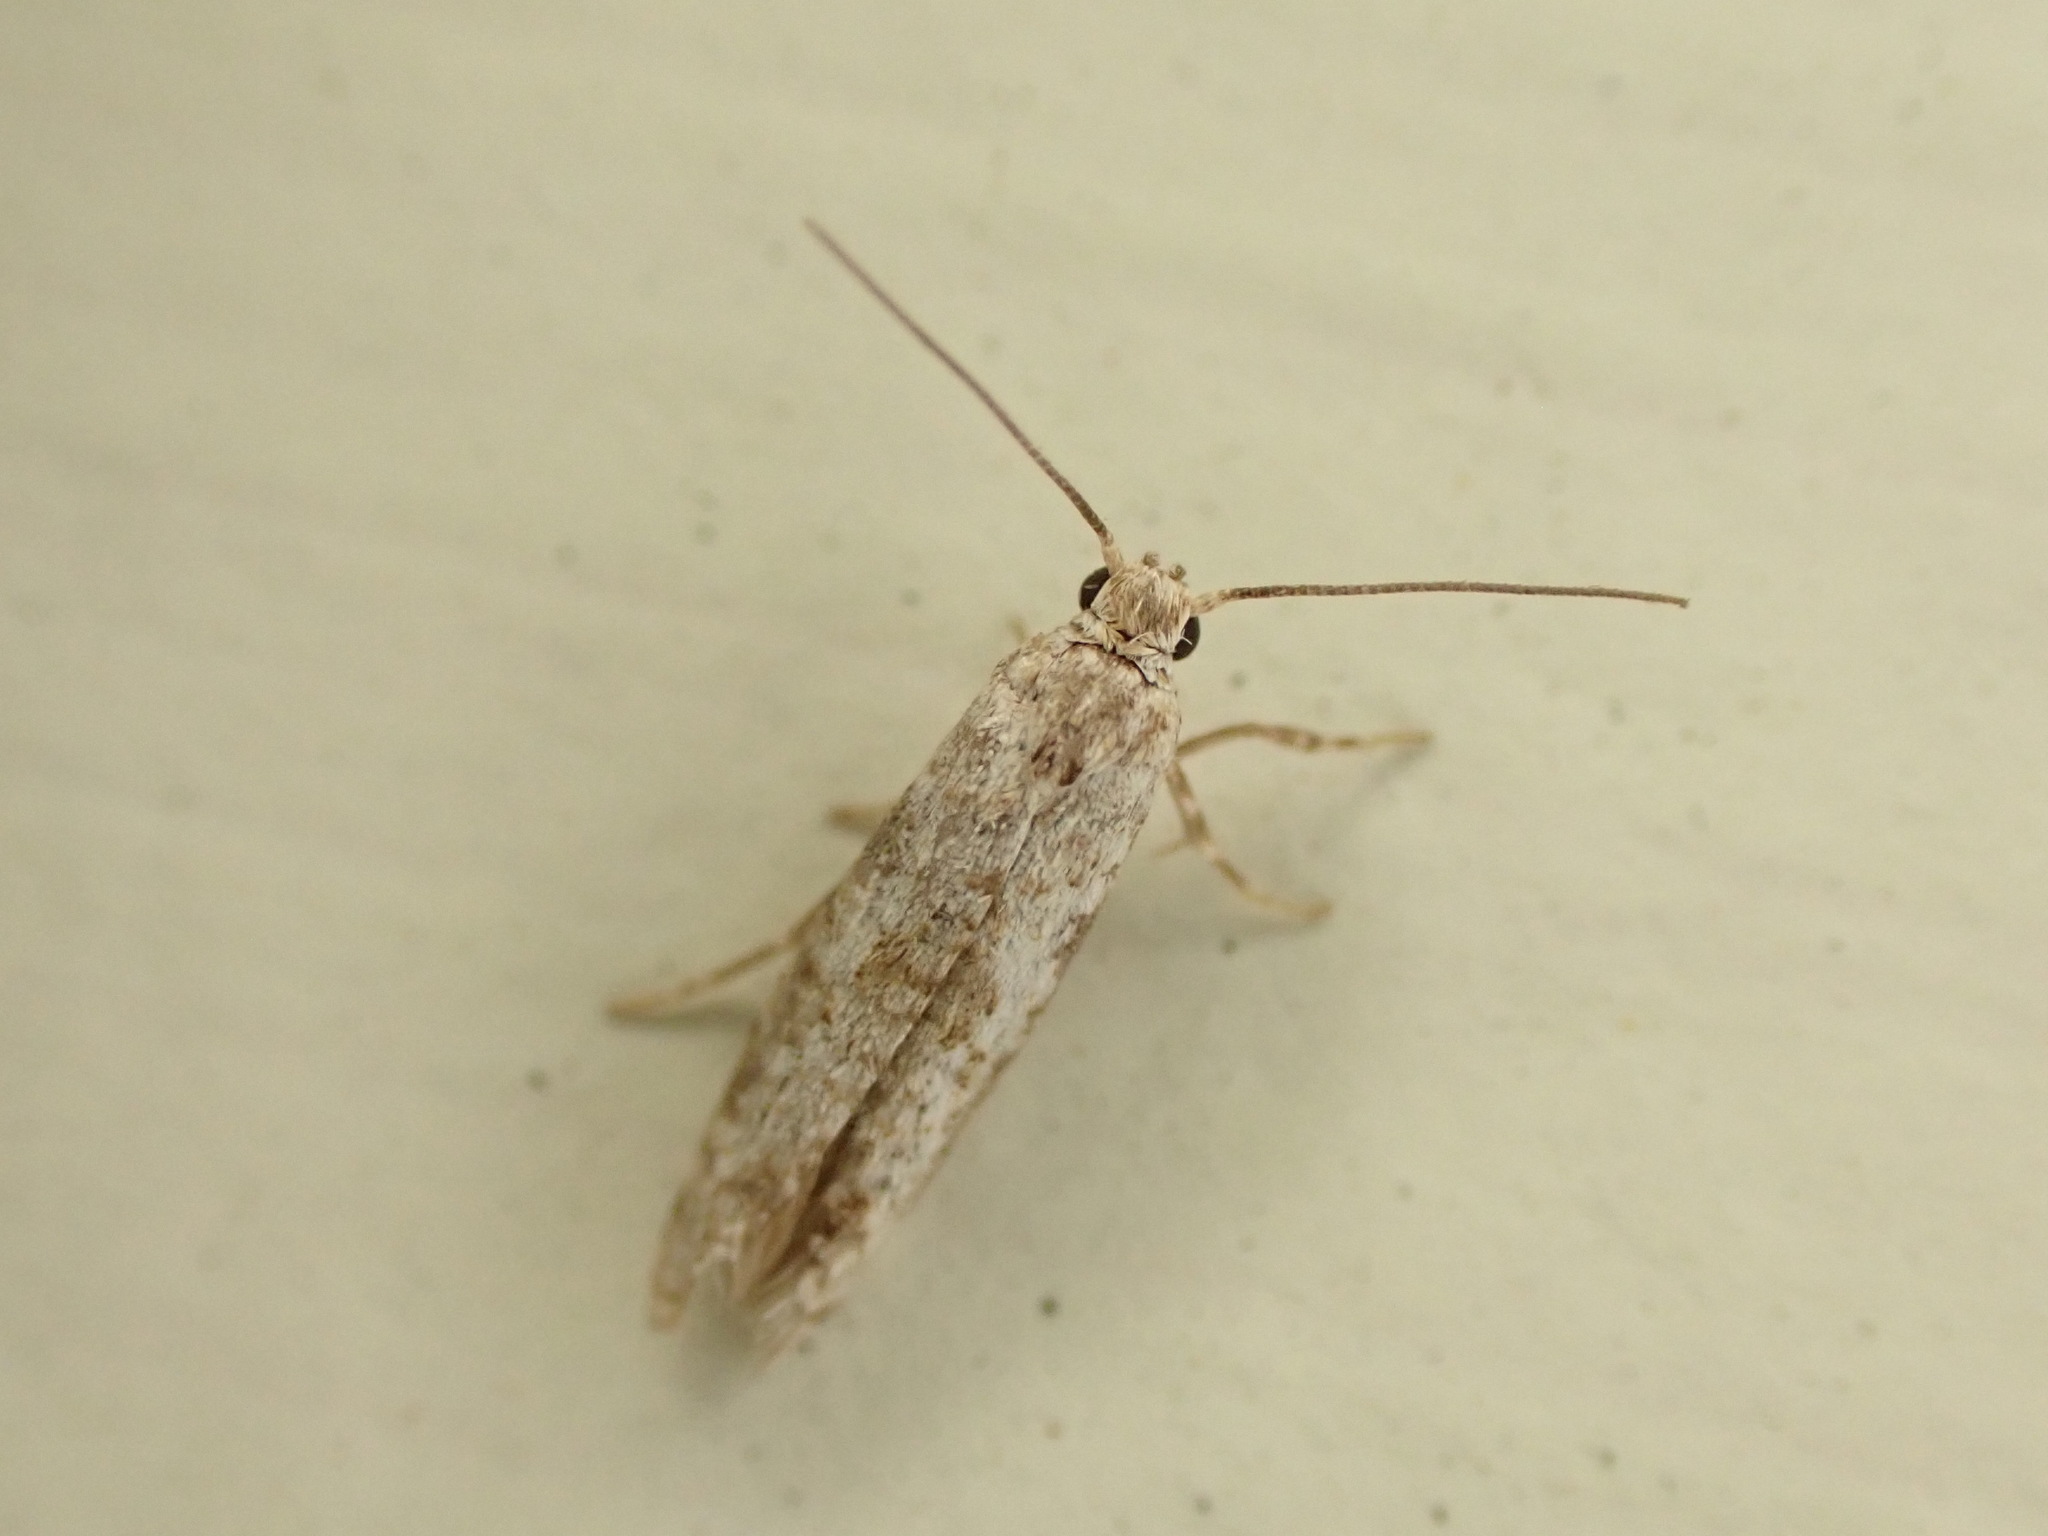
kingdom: Animalia
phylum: Arthropoda
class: Insecta
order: Lepidoptera
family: Praydidae
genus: Prays
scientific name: Prays nephelomima
